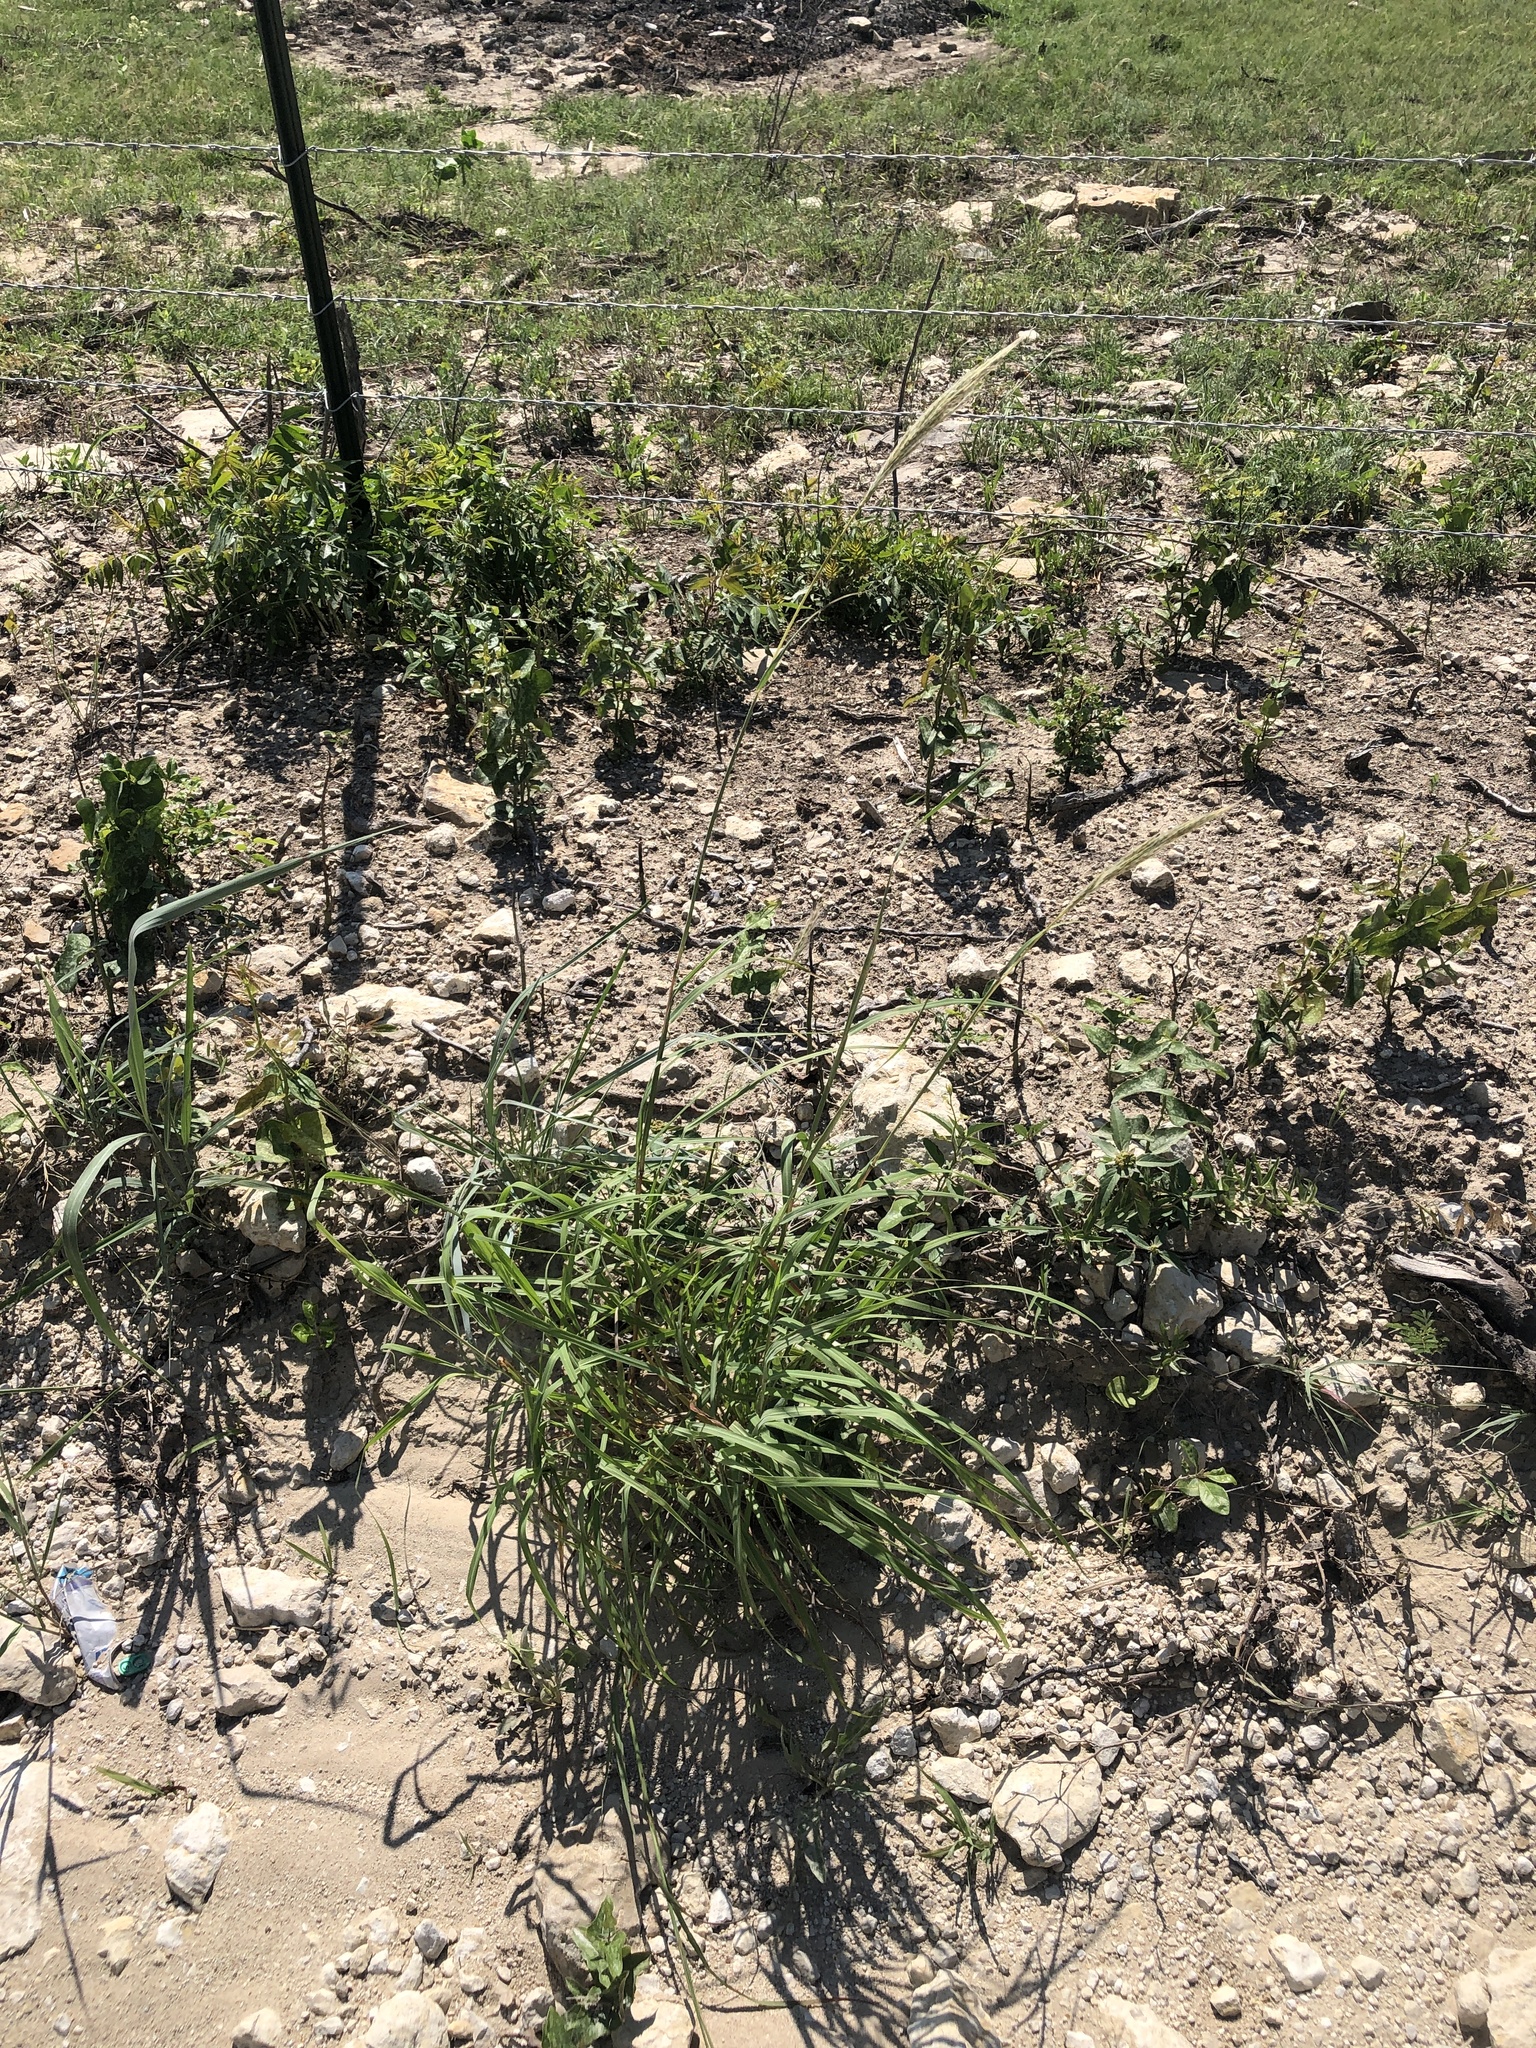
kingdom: Plantae
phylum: Tracheophyta
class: Liliopsida
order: Poales
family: Poaceae
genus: Bothriochloa
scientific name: Bothriochloa torreyana
